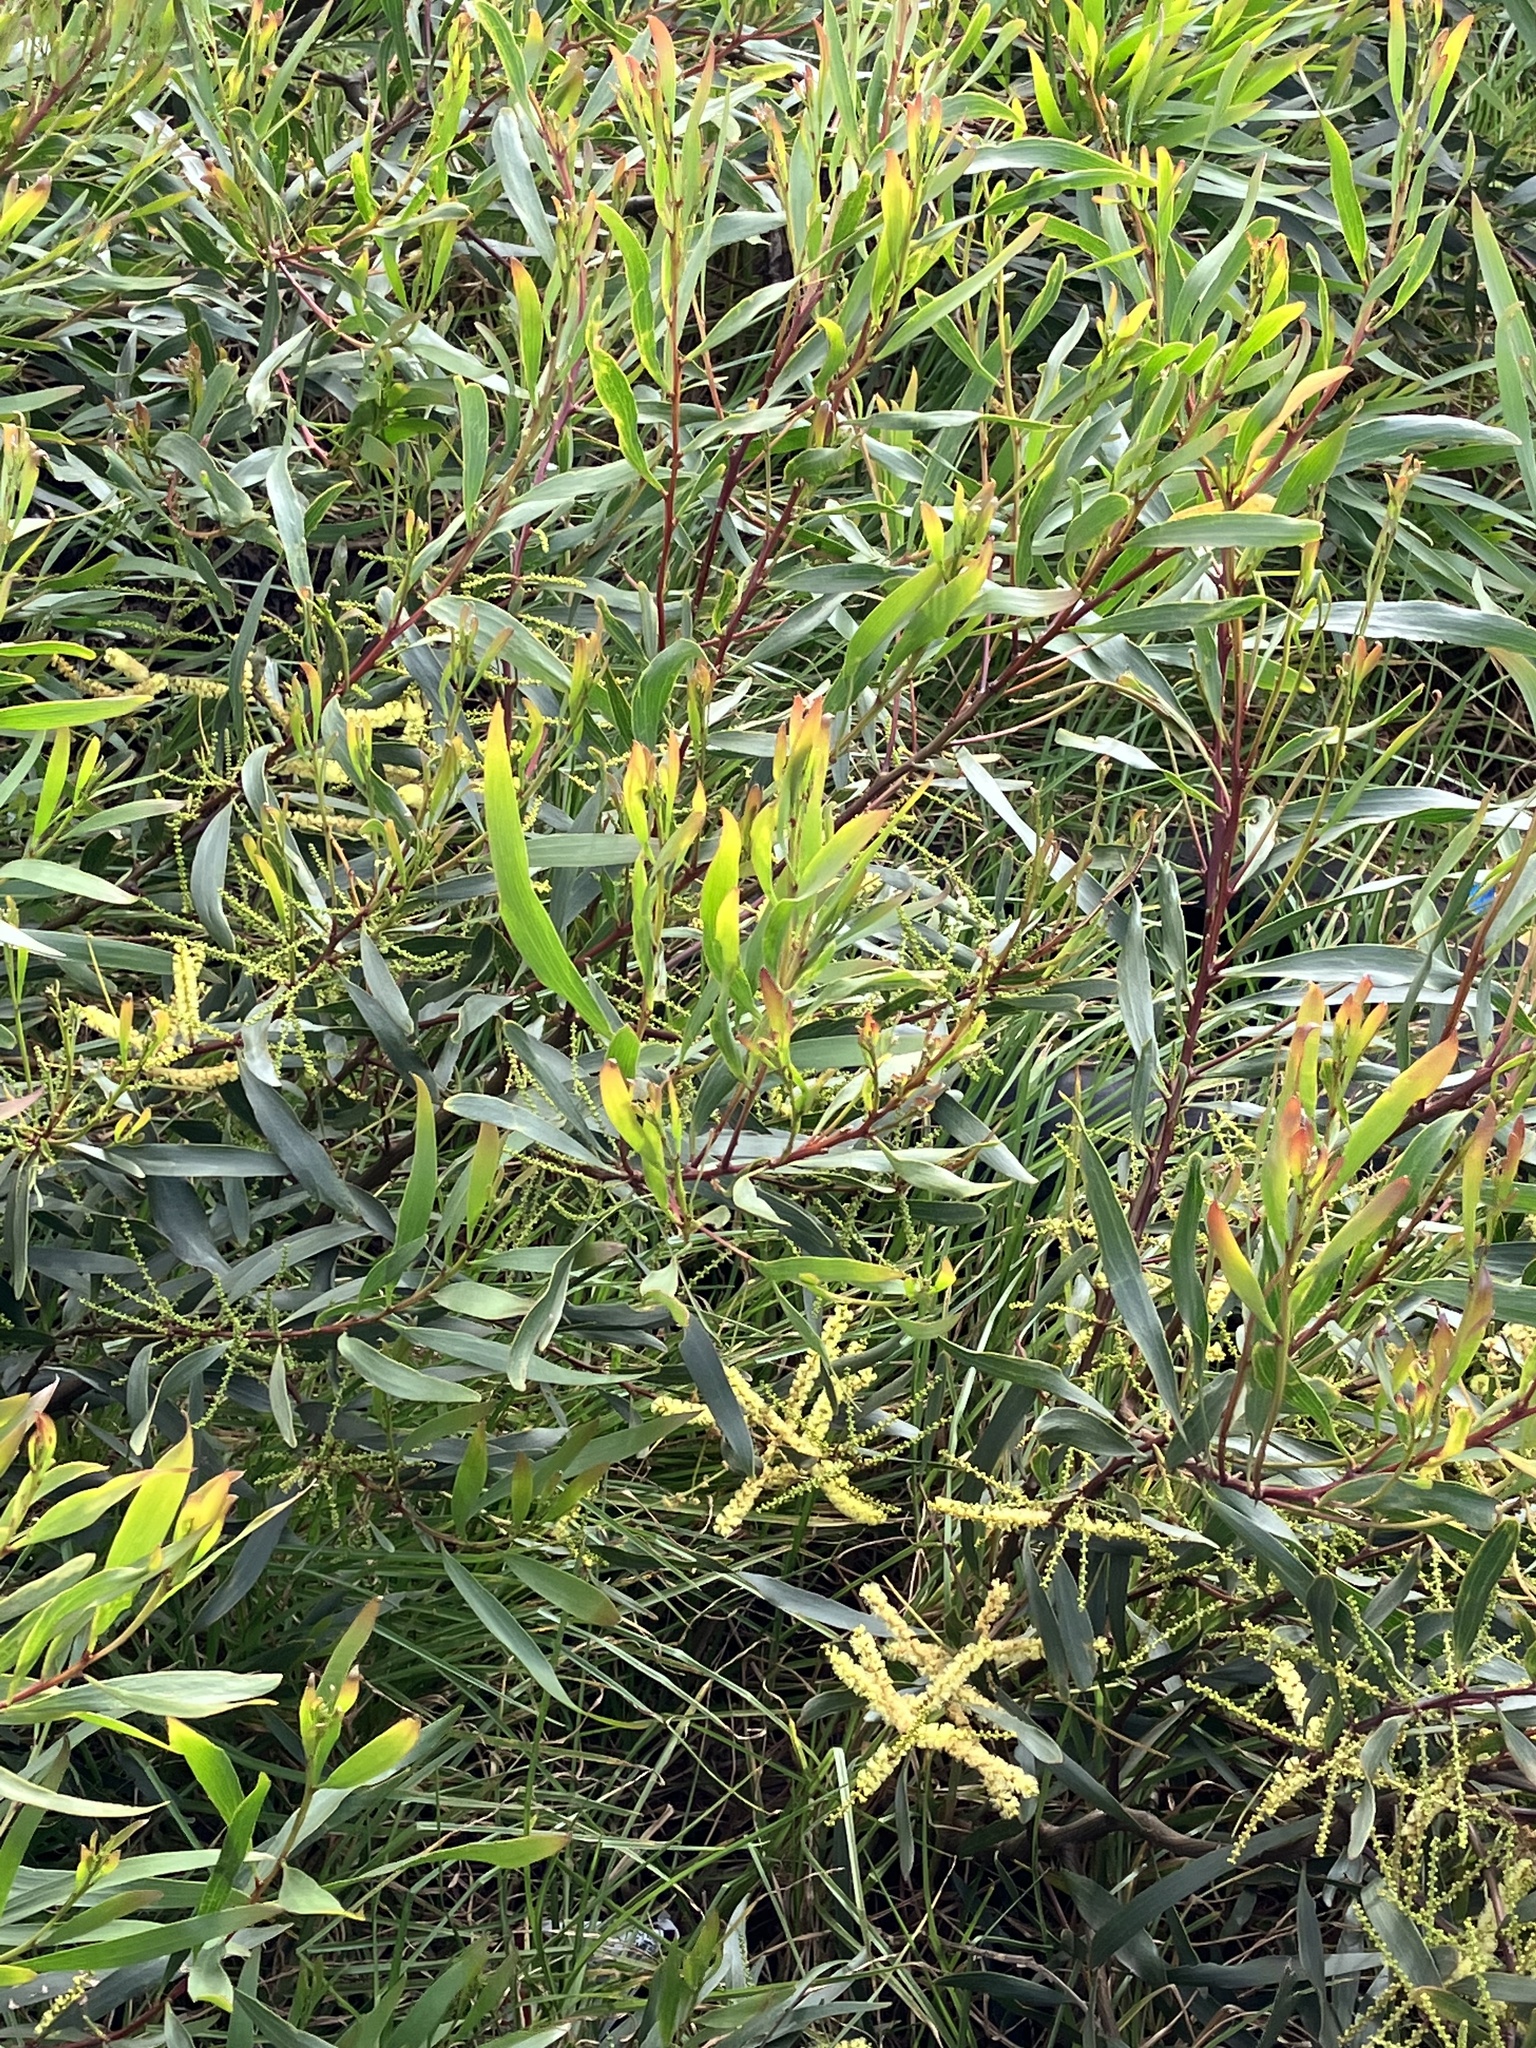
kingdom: Plantae
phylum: Tracheophyta
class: Magnoliopsida
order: Fabales
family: Fabaceae
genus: Acacia
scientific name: Acacia longifolia
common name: Sydney golden wattle
